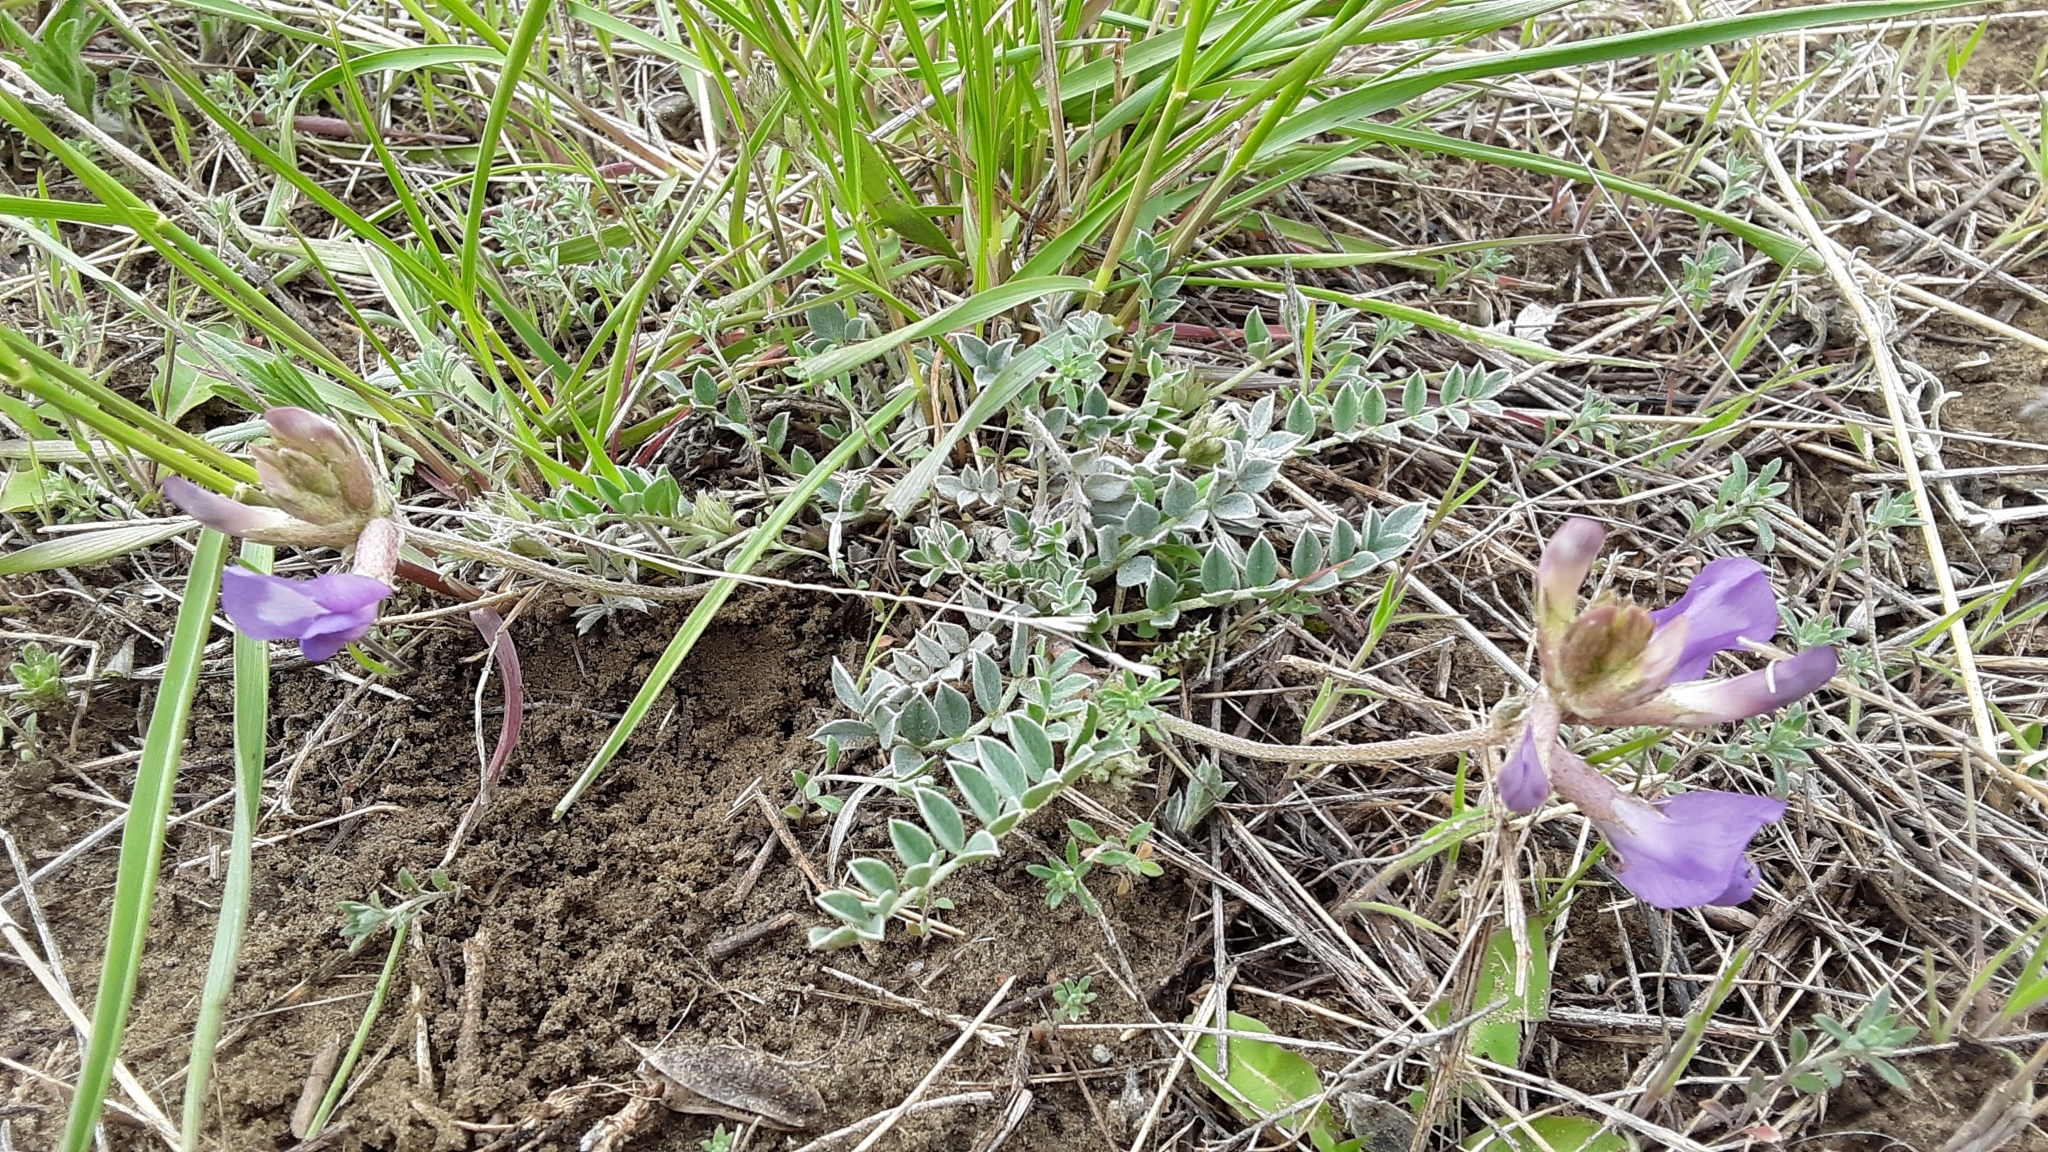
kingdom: Plantae
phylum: Tracheophyta
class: Magnoliopsida
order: Fabales
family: Fabaceae
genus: Astragalus
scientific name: Astragalus missouriensis
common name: Missouri milk-vetch
